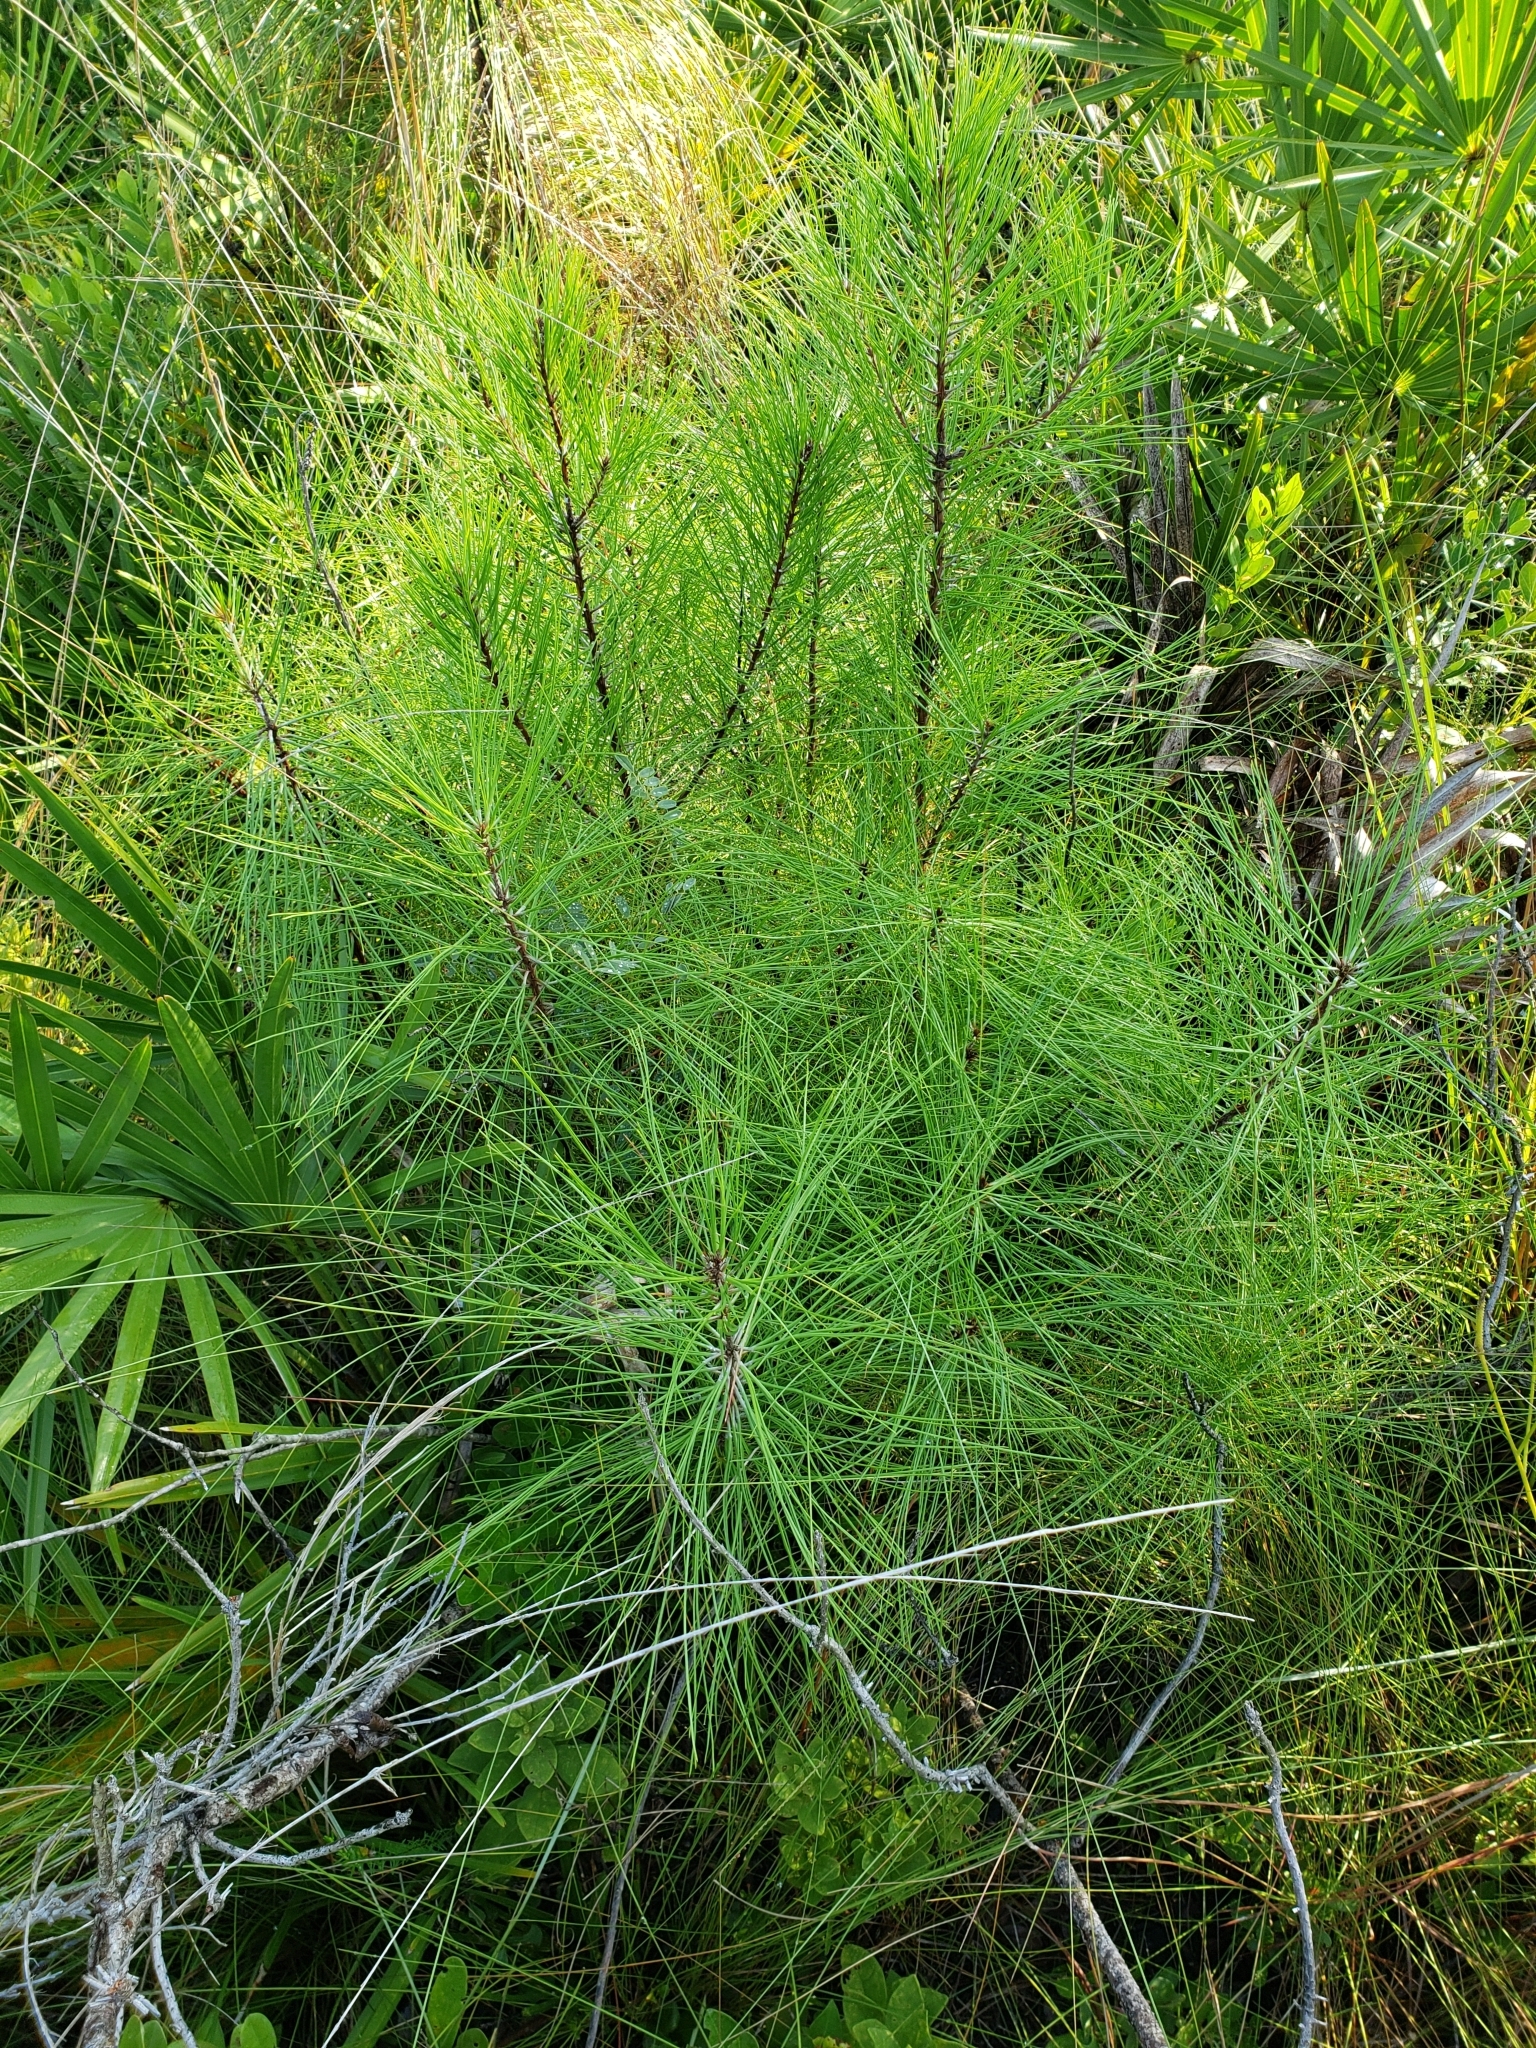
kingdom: Plantae
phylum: Tracheophyta
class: Pinopsida
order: Pinales
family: Pinaceae
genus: Pinus
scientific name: Pinus clausa
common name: Sand pine
